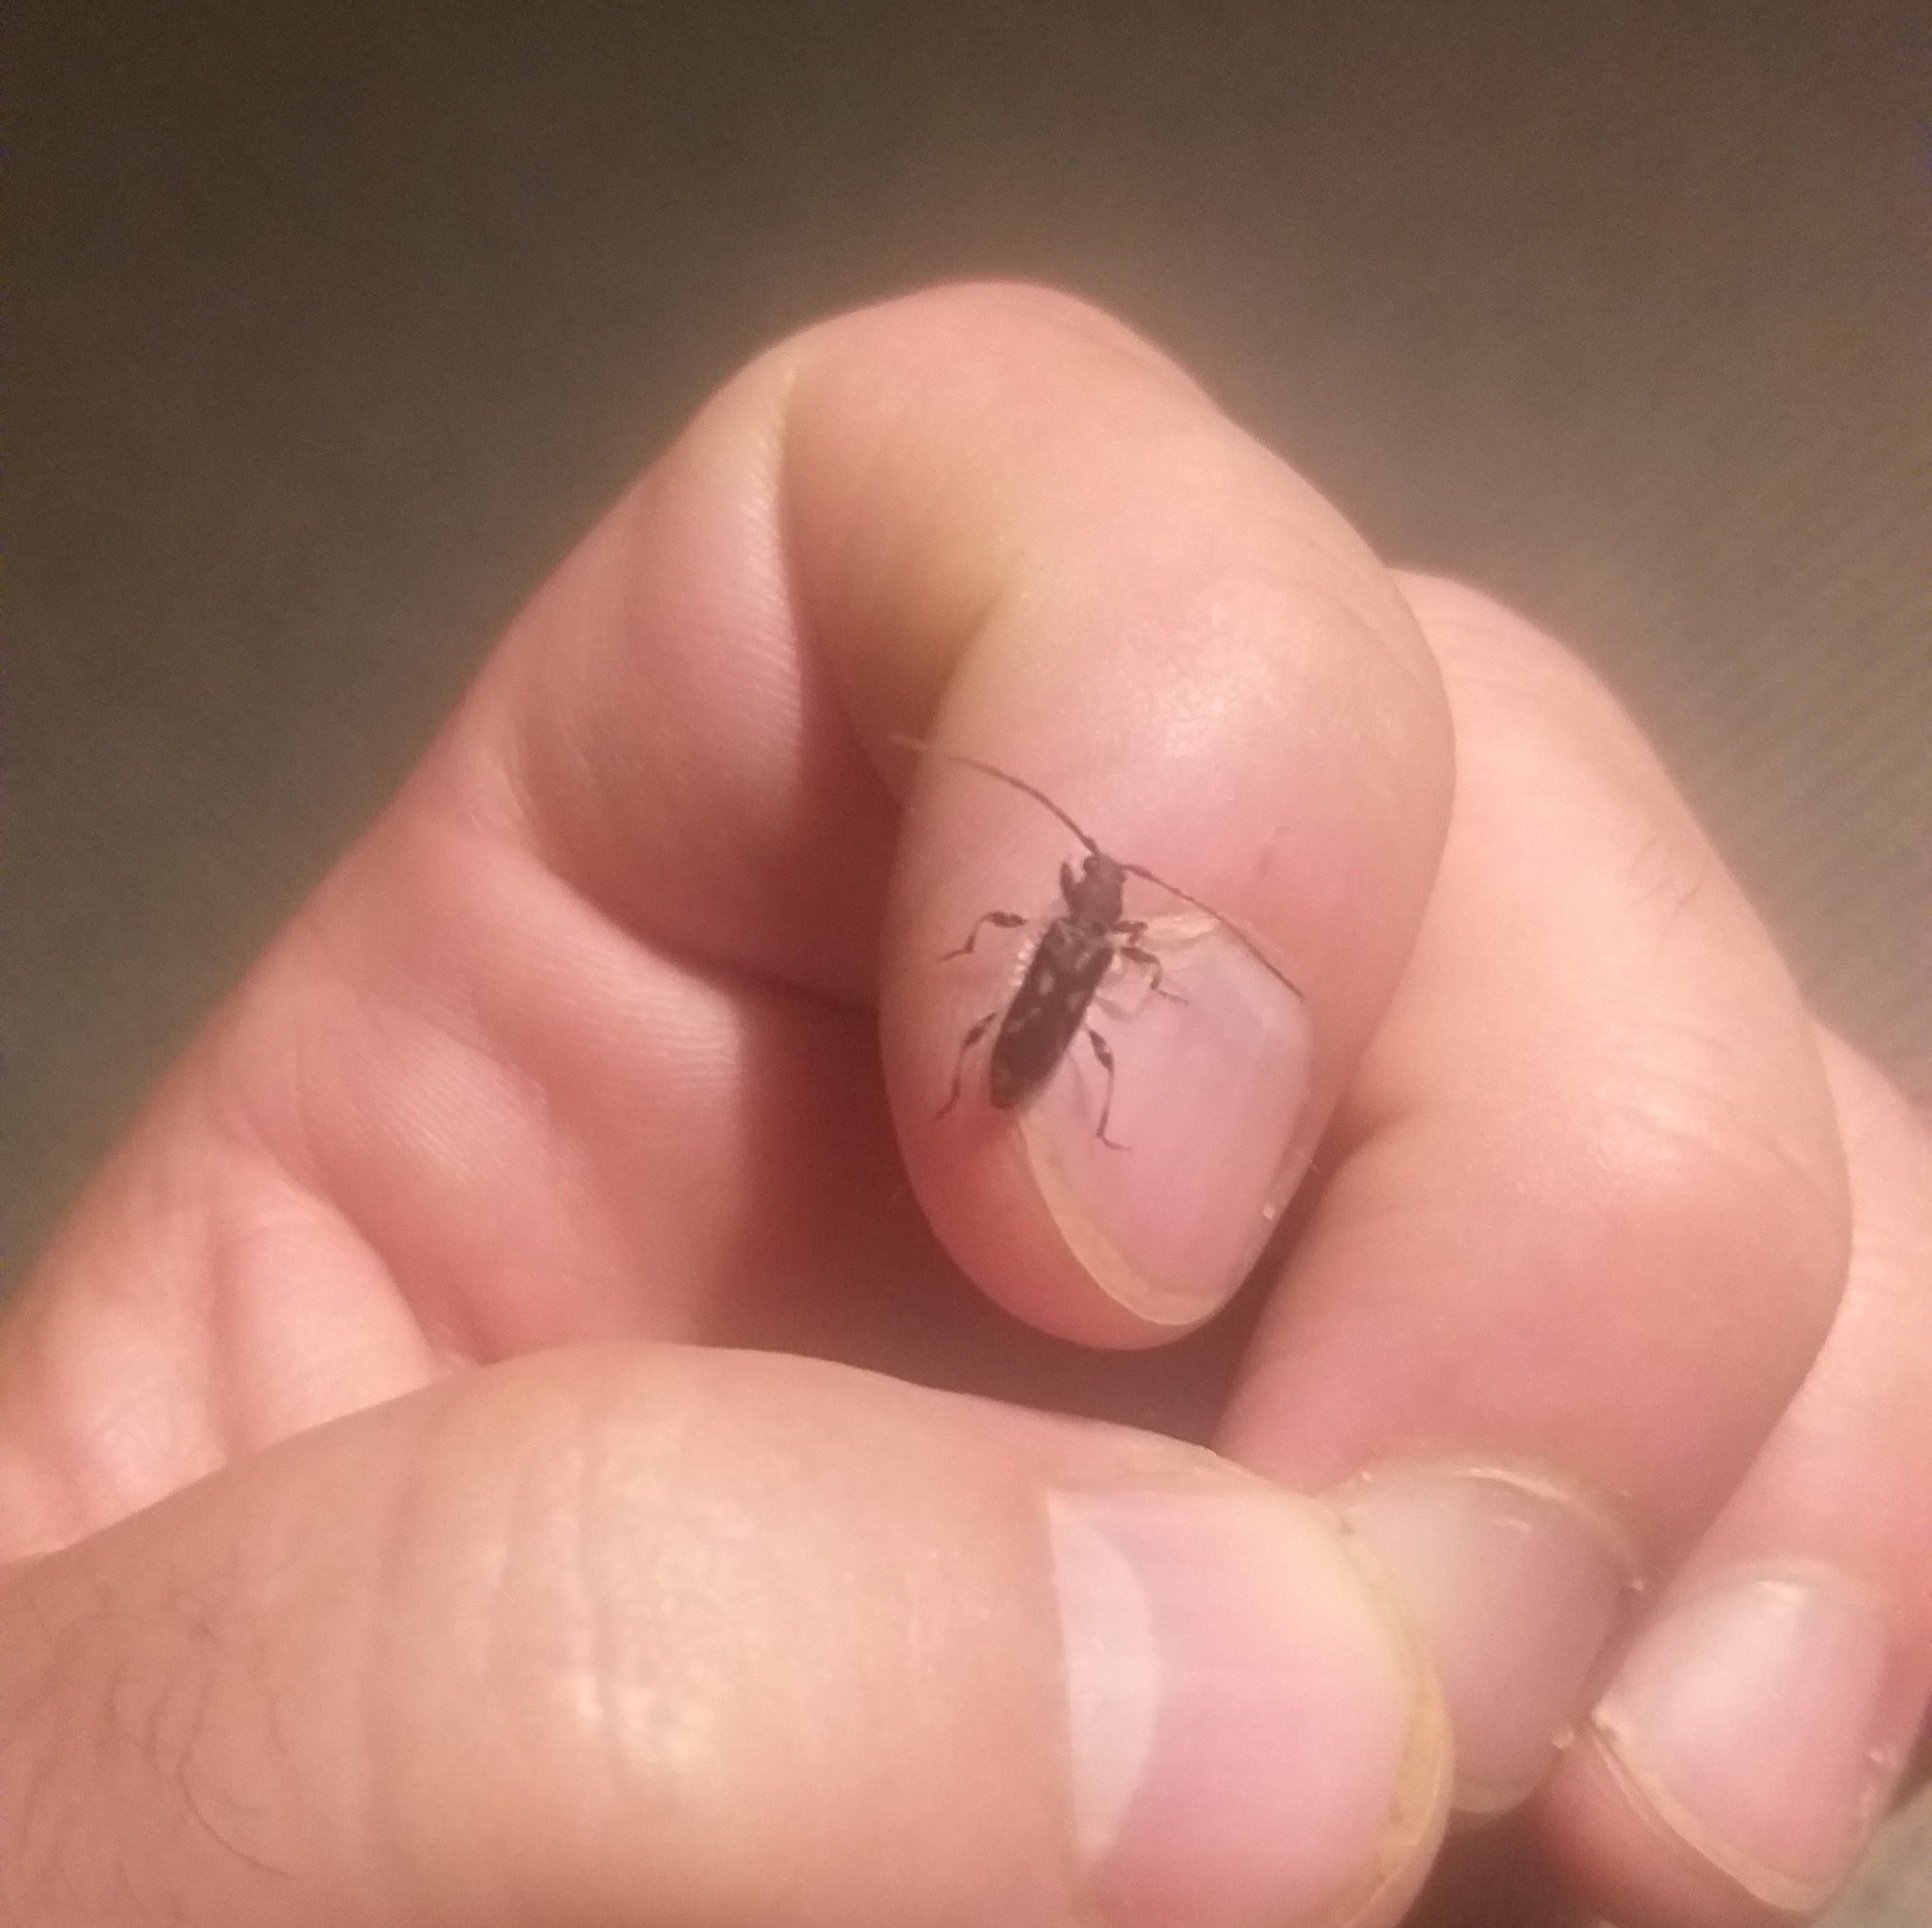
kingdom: Animalia
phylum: Arthropoda
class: Insecta
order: Coleoptera
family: Cerambycidae
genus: Bethelium
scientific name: Bethelium signiferum
